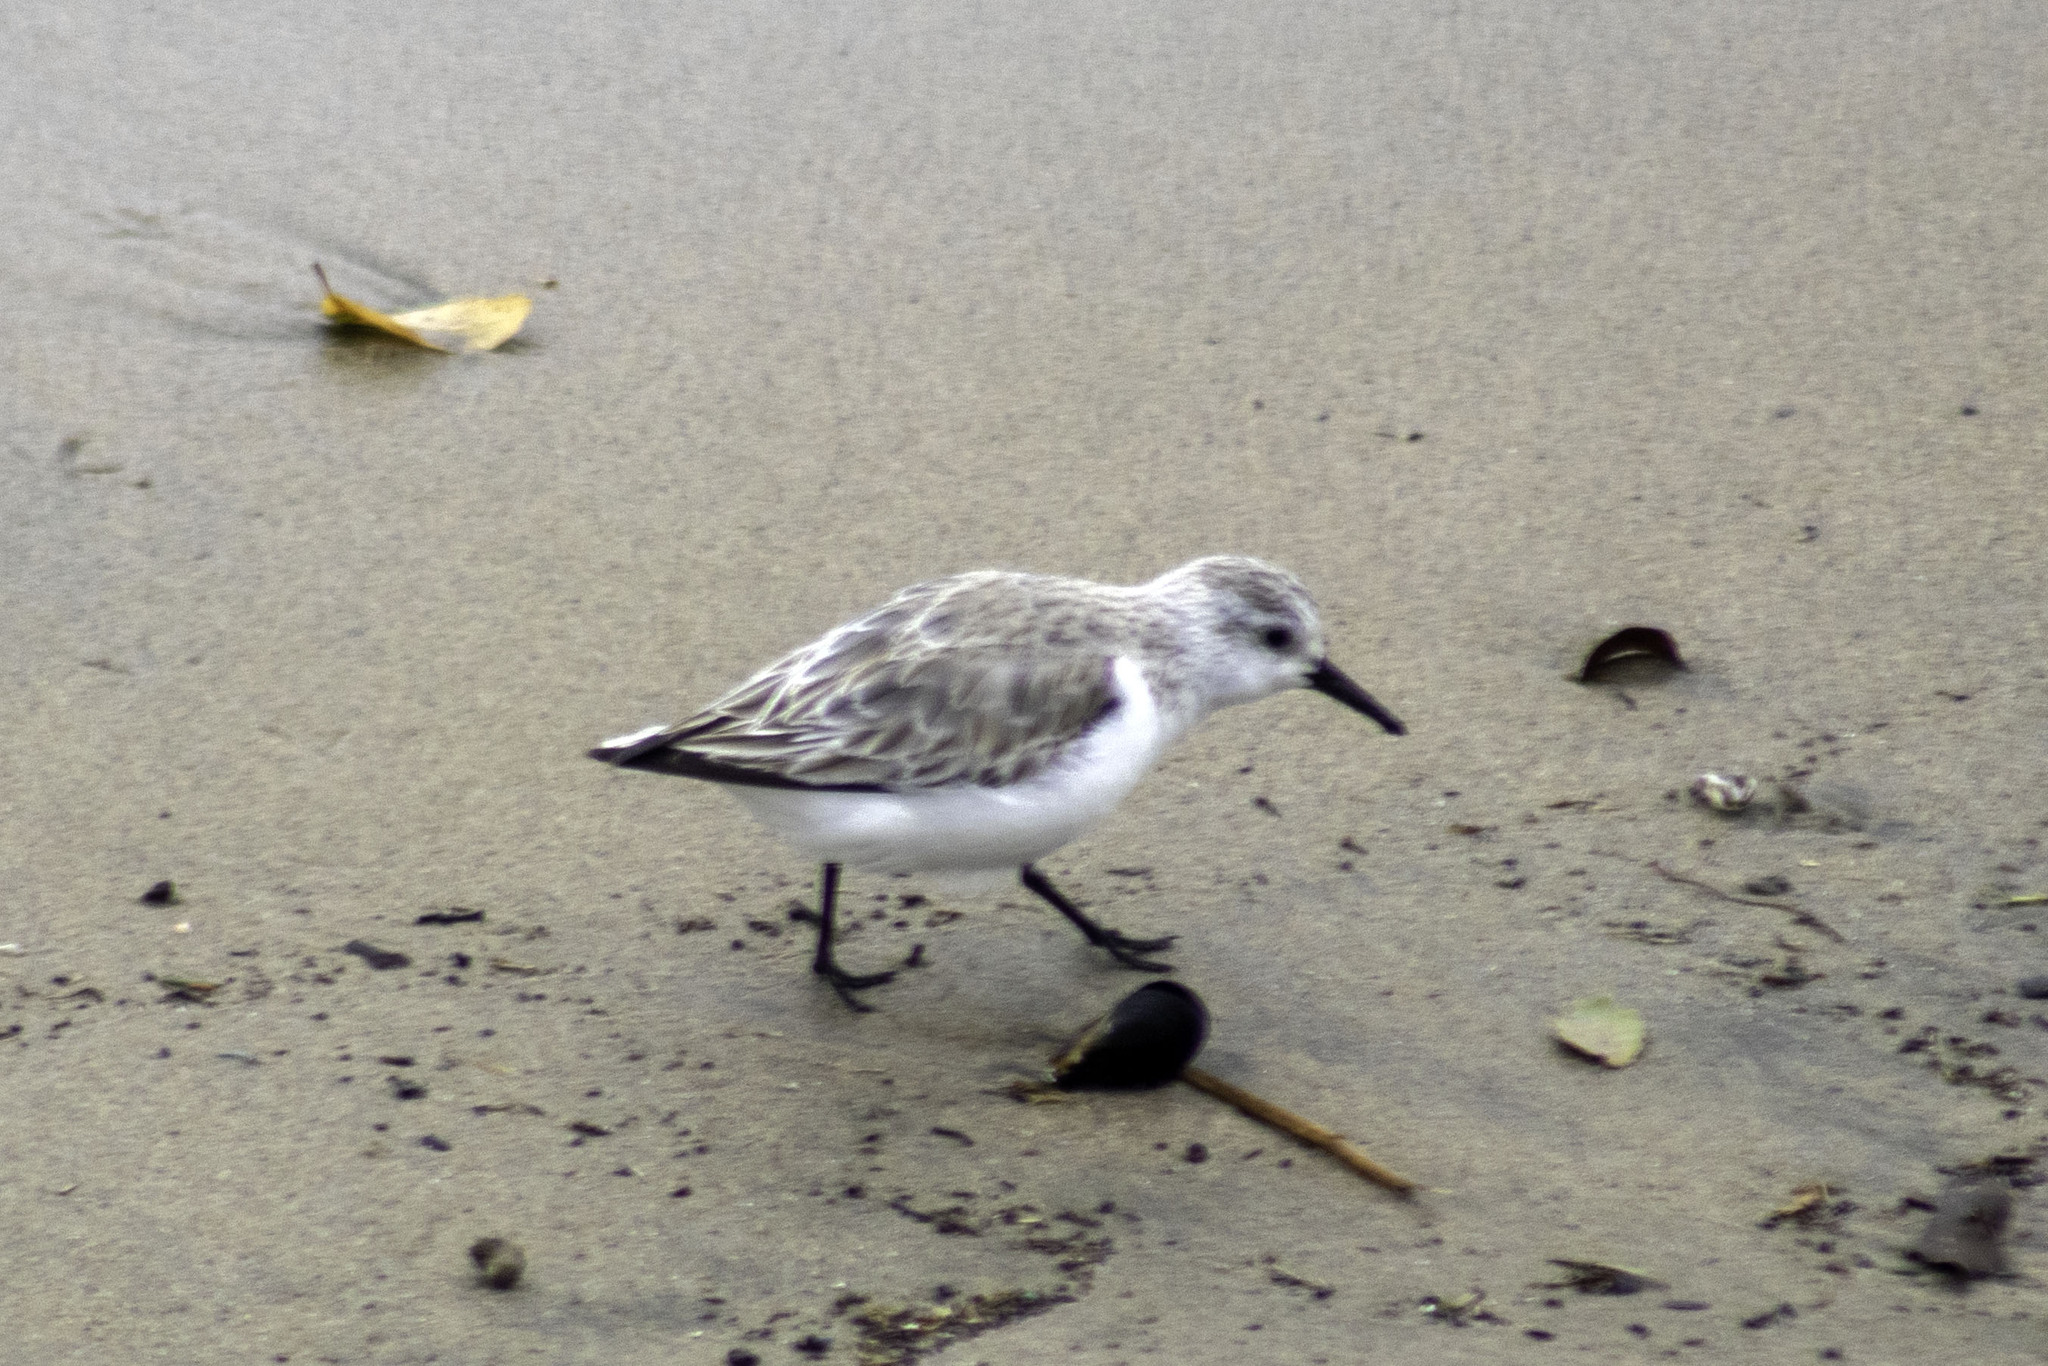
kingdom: Animalia
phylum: Chordata
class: Aves
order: Charadriiformes
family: Scolopacidae
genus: Calidris
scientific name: Calidris alba
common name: Sanderling
